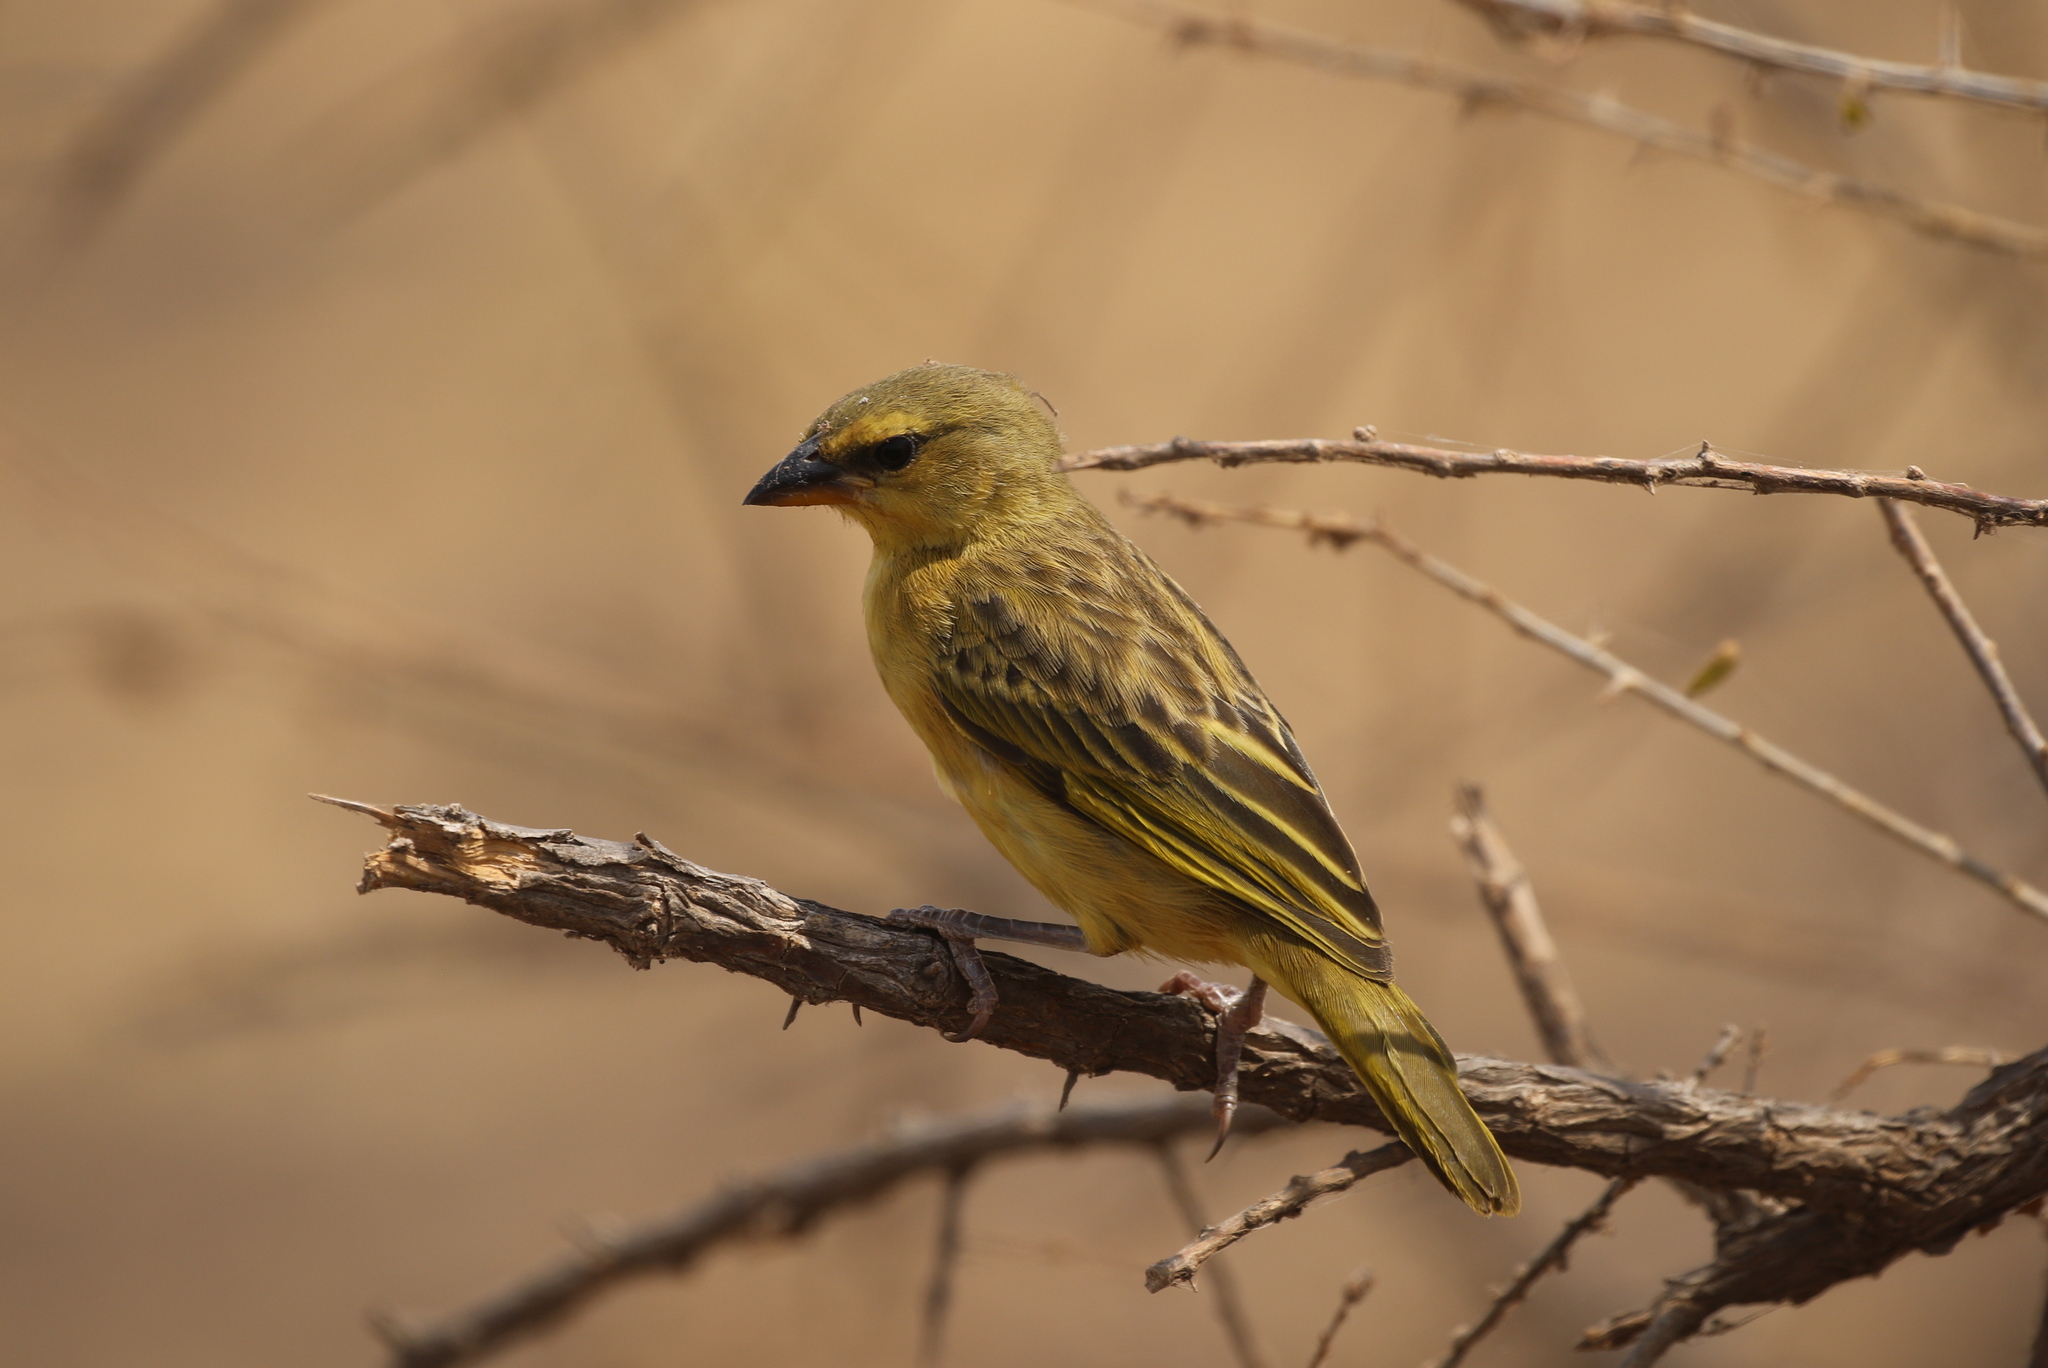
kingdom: Animalia
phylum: Chordata
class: Aves
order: Passeriformes
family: Ploceidae
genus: Ploceus
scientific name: Ploceus castaneiceps
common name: Taveta weaver
